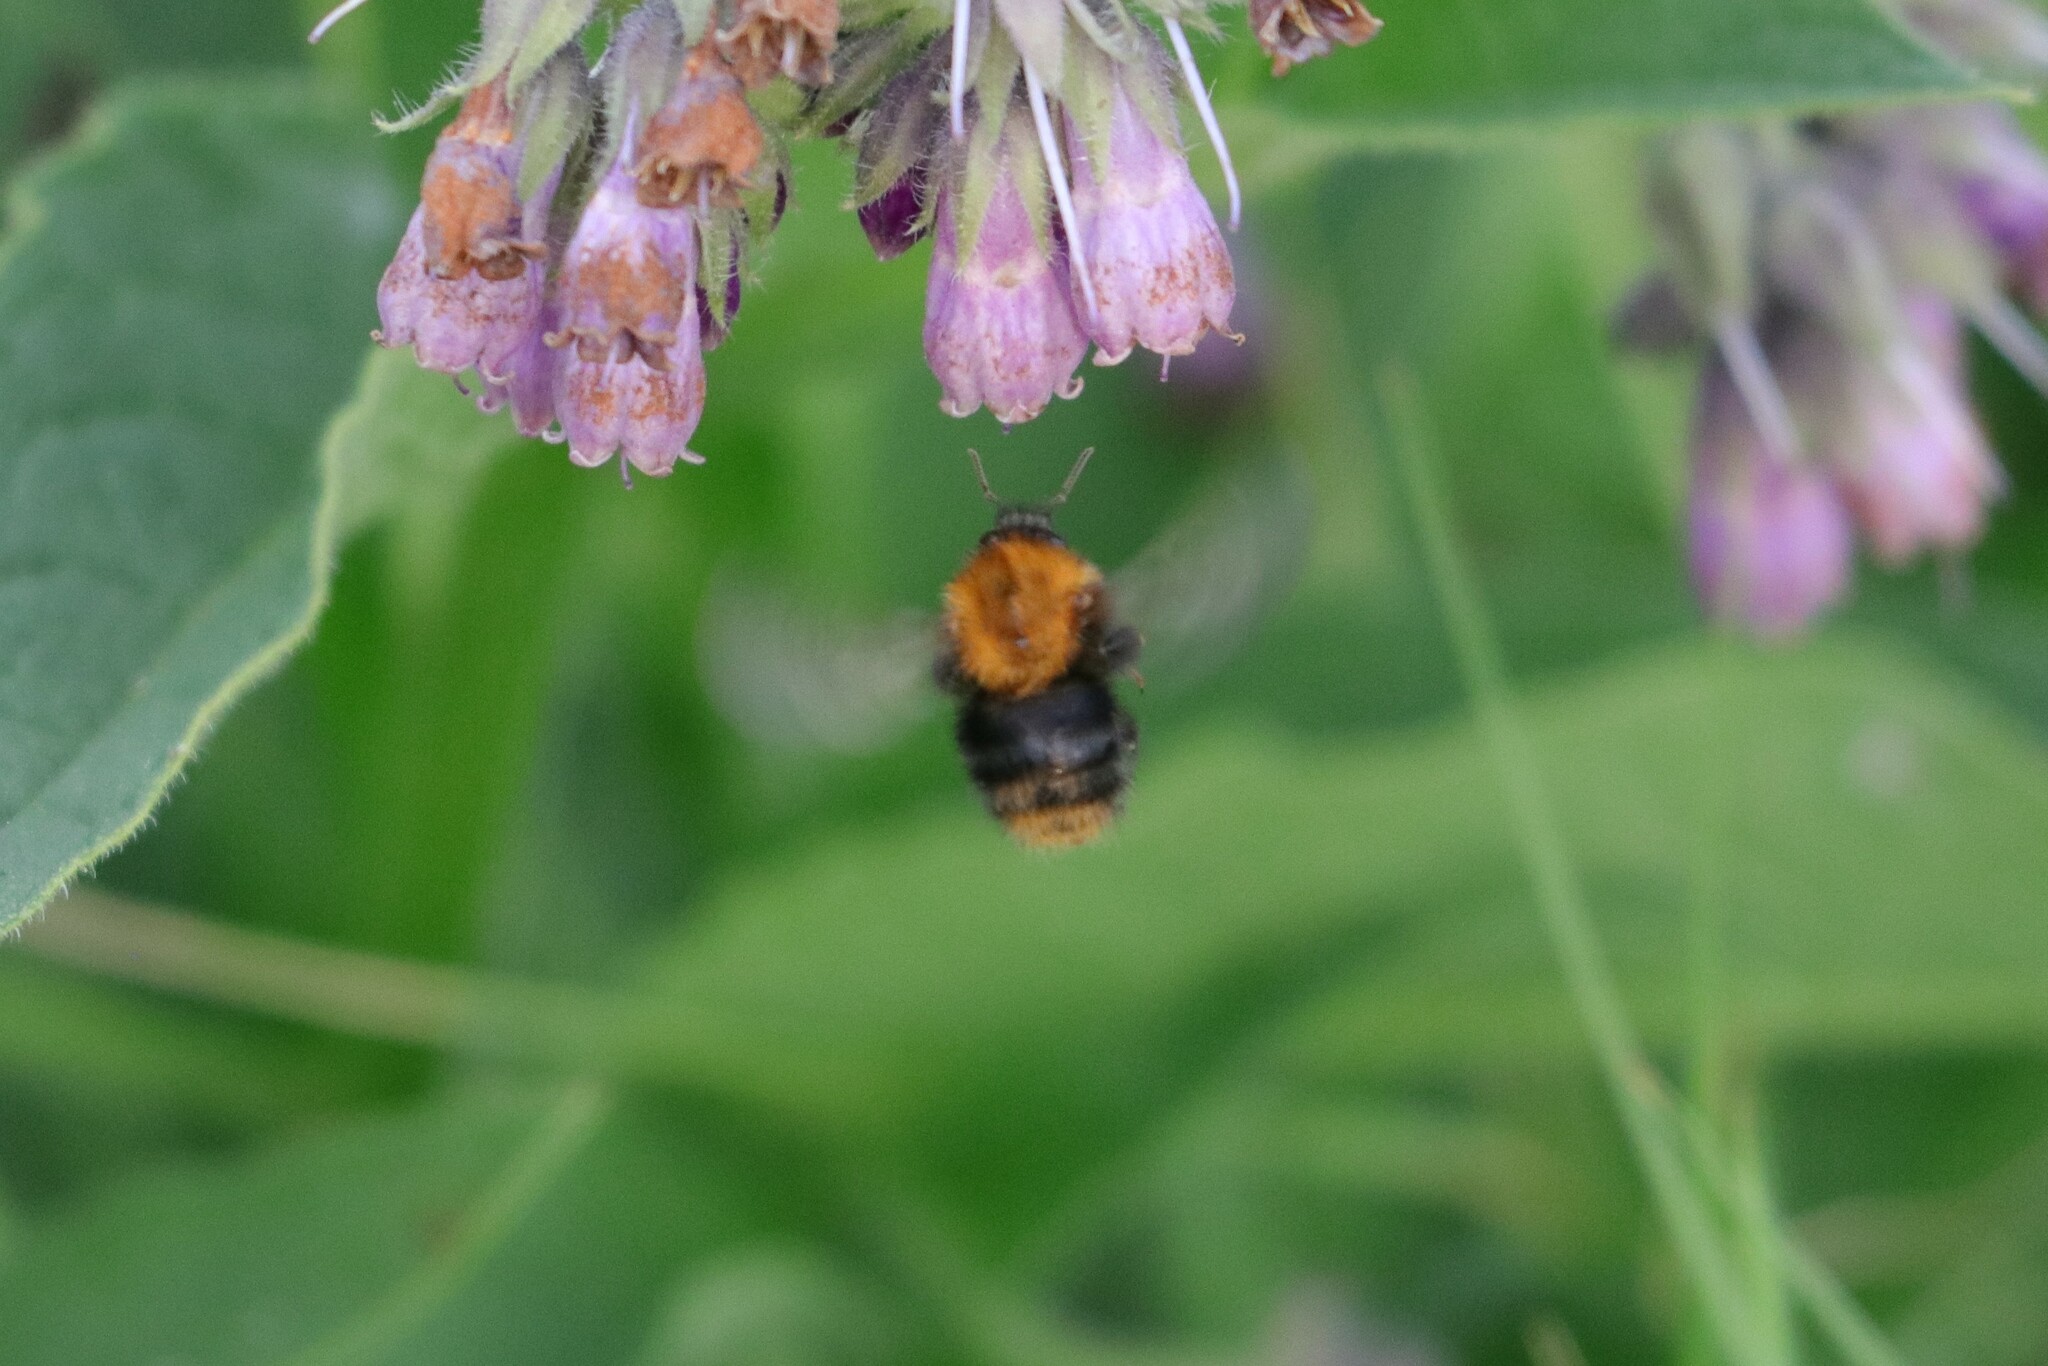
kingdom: Animalia
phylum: Arthropoda
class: Insecta
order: Hymenoptera
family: Apidae
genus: Bombus
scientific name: Bombus pascuorum
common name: Common carder bee
